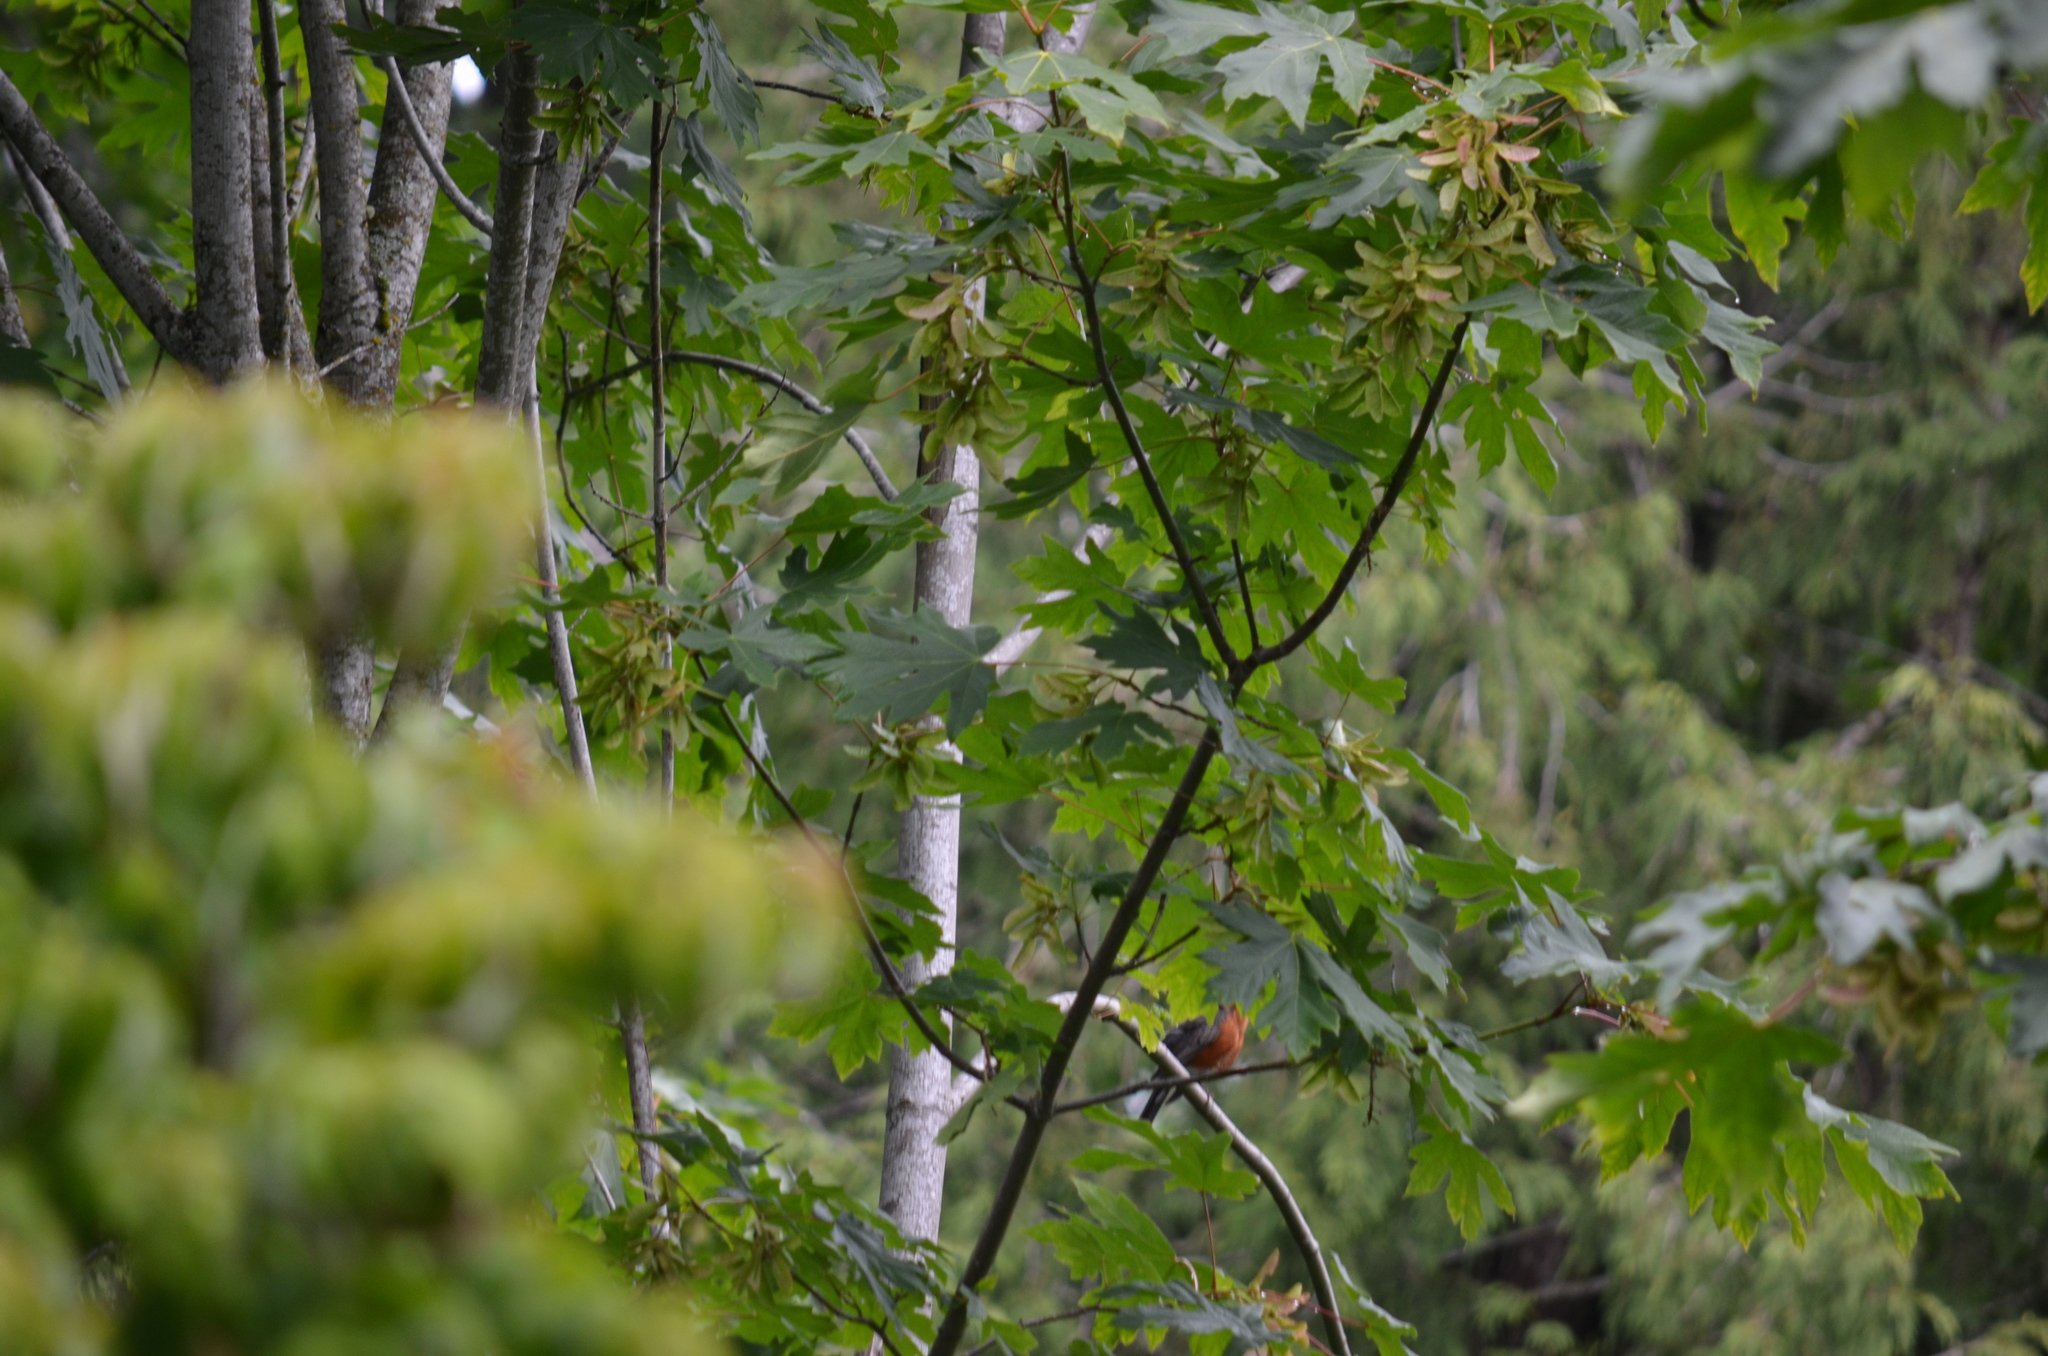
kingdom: Animalia
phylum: Chordata
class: Aves
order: Passeriformes
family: Turdidae
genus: Turdus
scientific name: Turdus migratorius
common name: American robin
